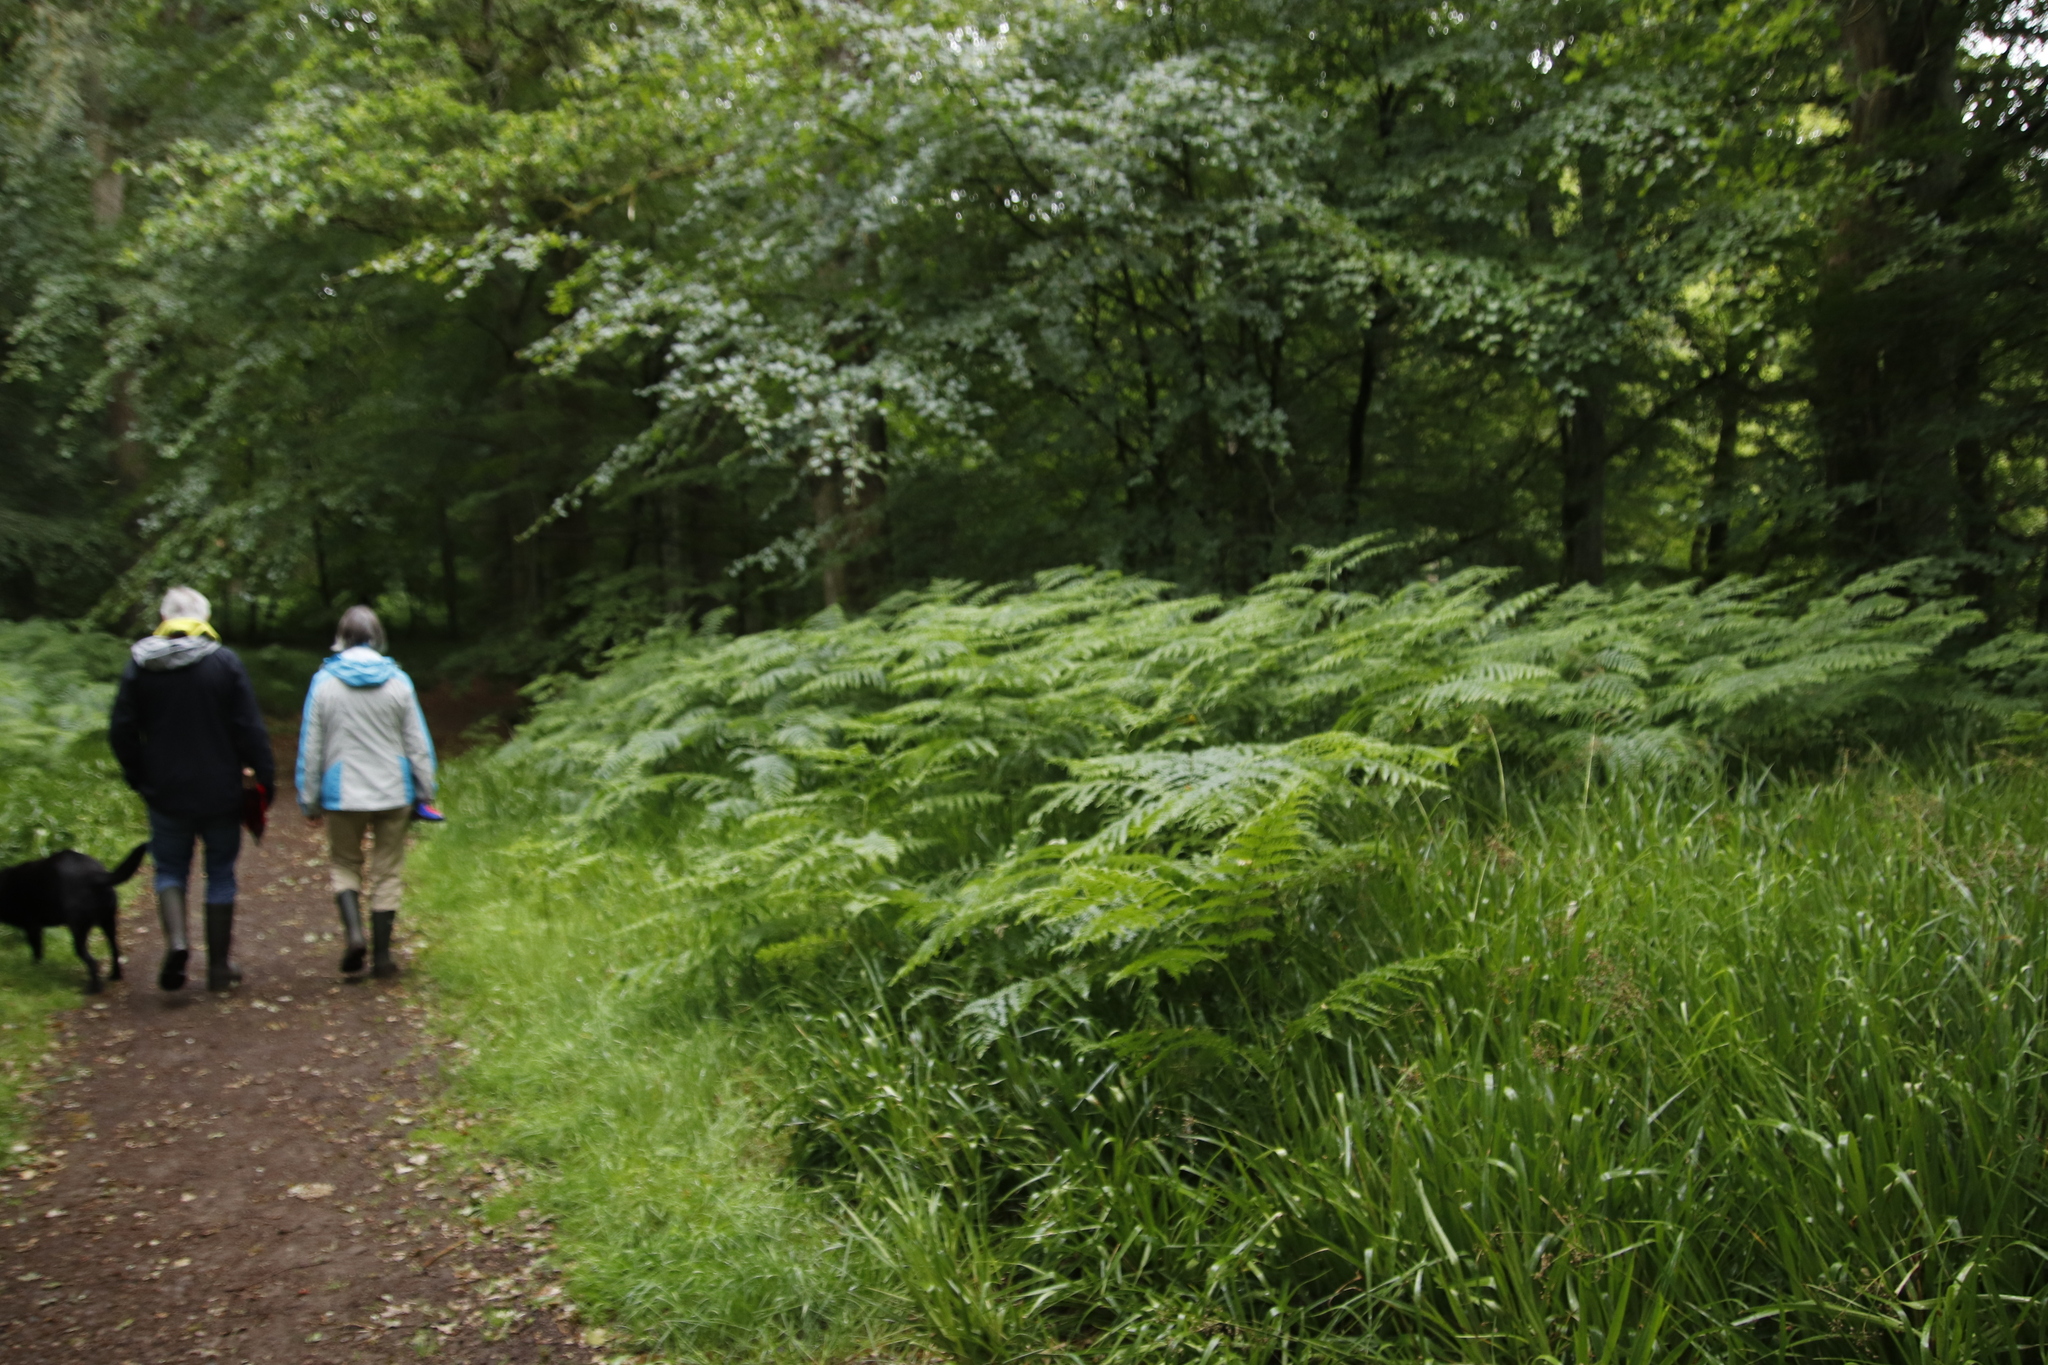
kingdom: Plantae
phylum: Tracheophyta
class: Polypodiopsida
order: Polypodiales
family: Dennstaedtiaceae
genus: Pteridium
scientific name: Pteridium aquilinum
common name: Bracken
